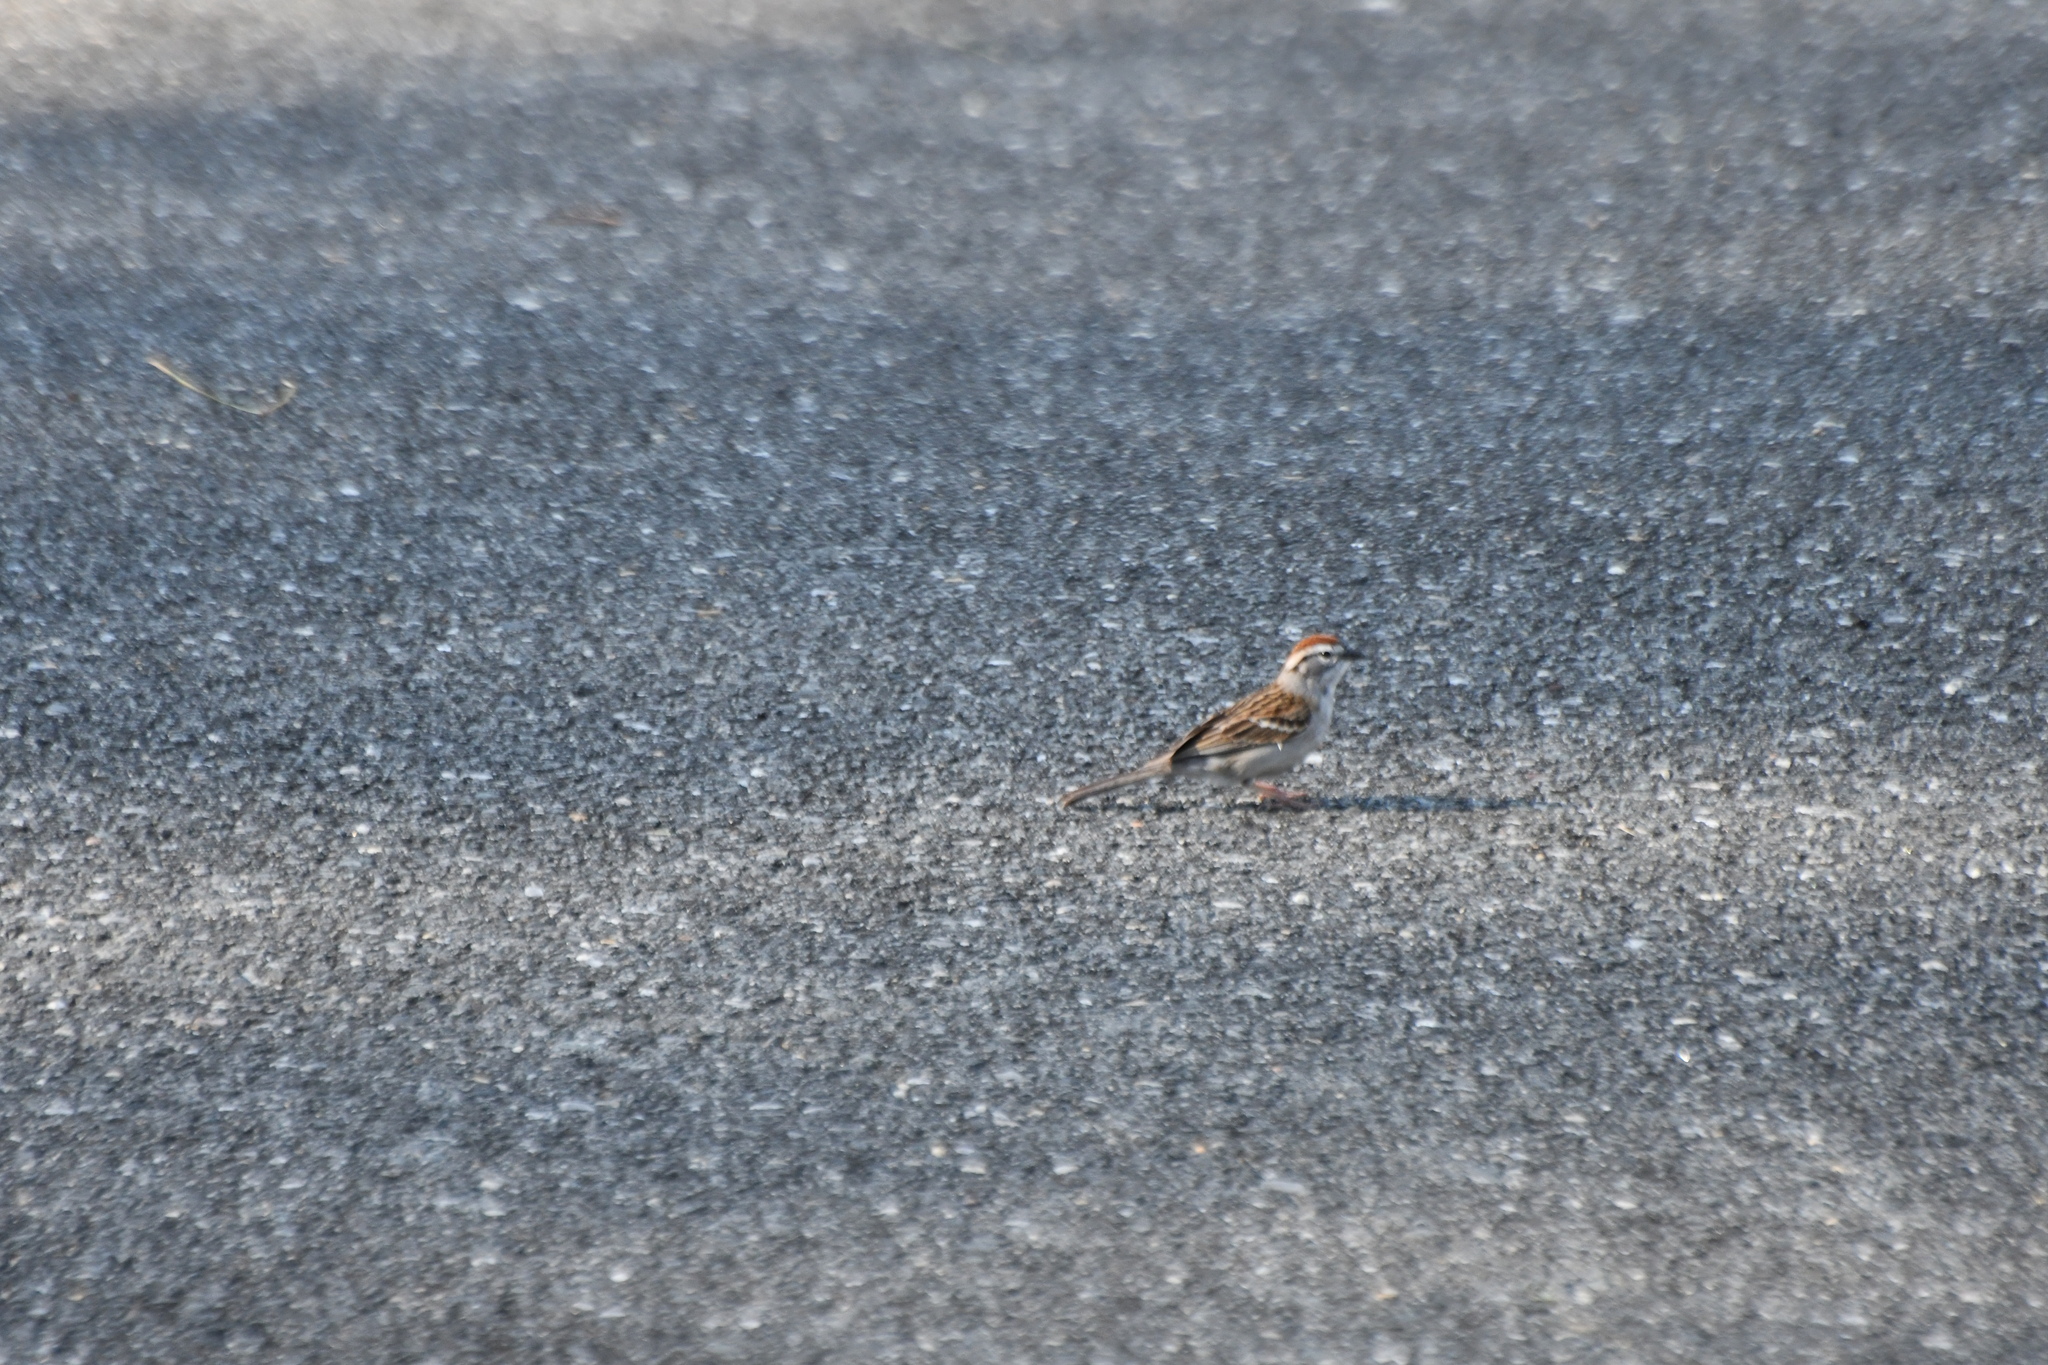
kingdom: Animalia
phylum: Chordata
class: Aves
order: Passeriformes
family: Passerellidae
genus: Spizella
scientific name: Spizella passerina
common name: Chipping sparrow
